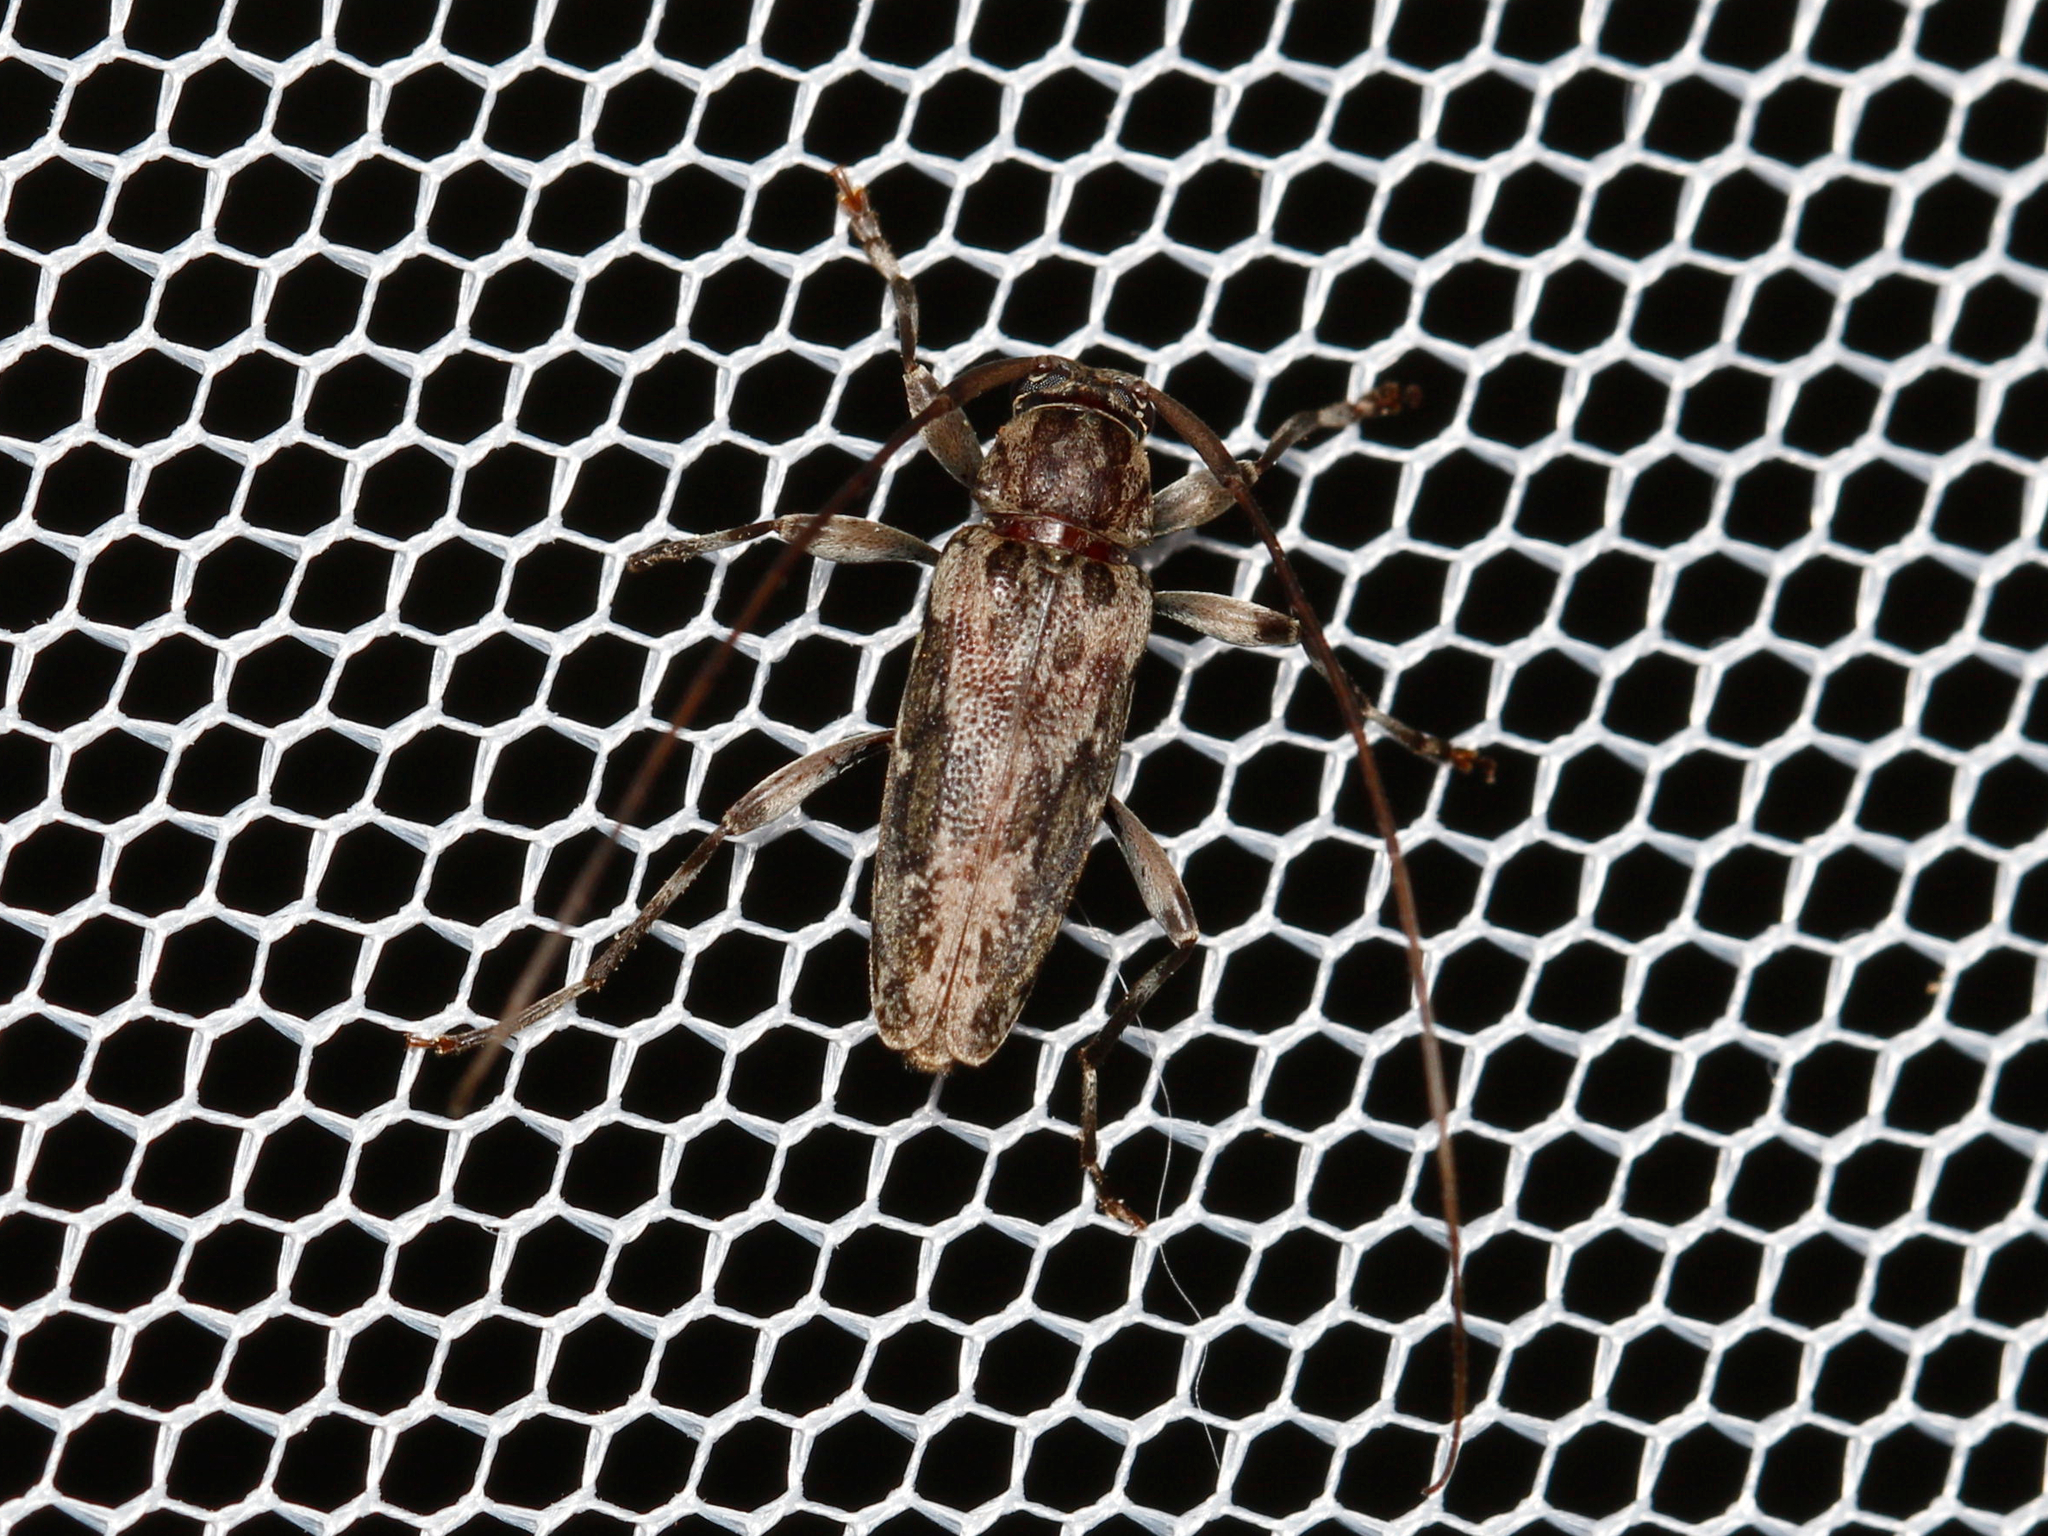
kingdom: Animalia
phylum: Arthropoda
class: Insecta
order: Coleoptera
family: Cerambycidae
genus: Lepturges
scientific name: Lepturges confluens
